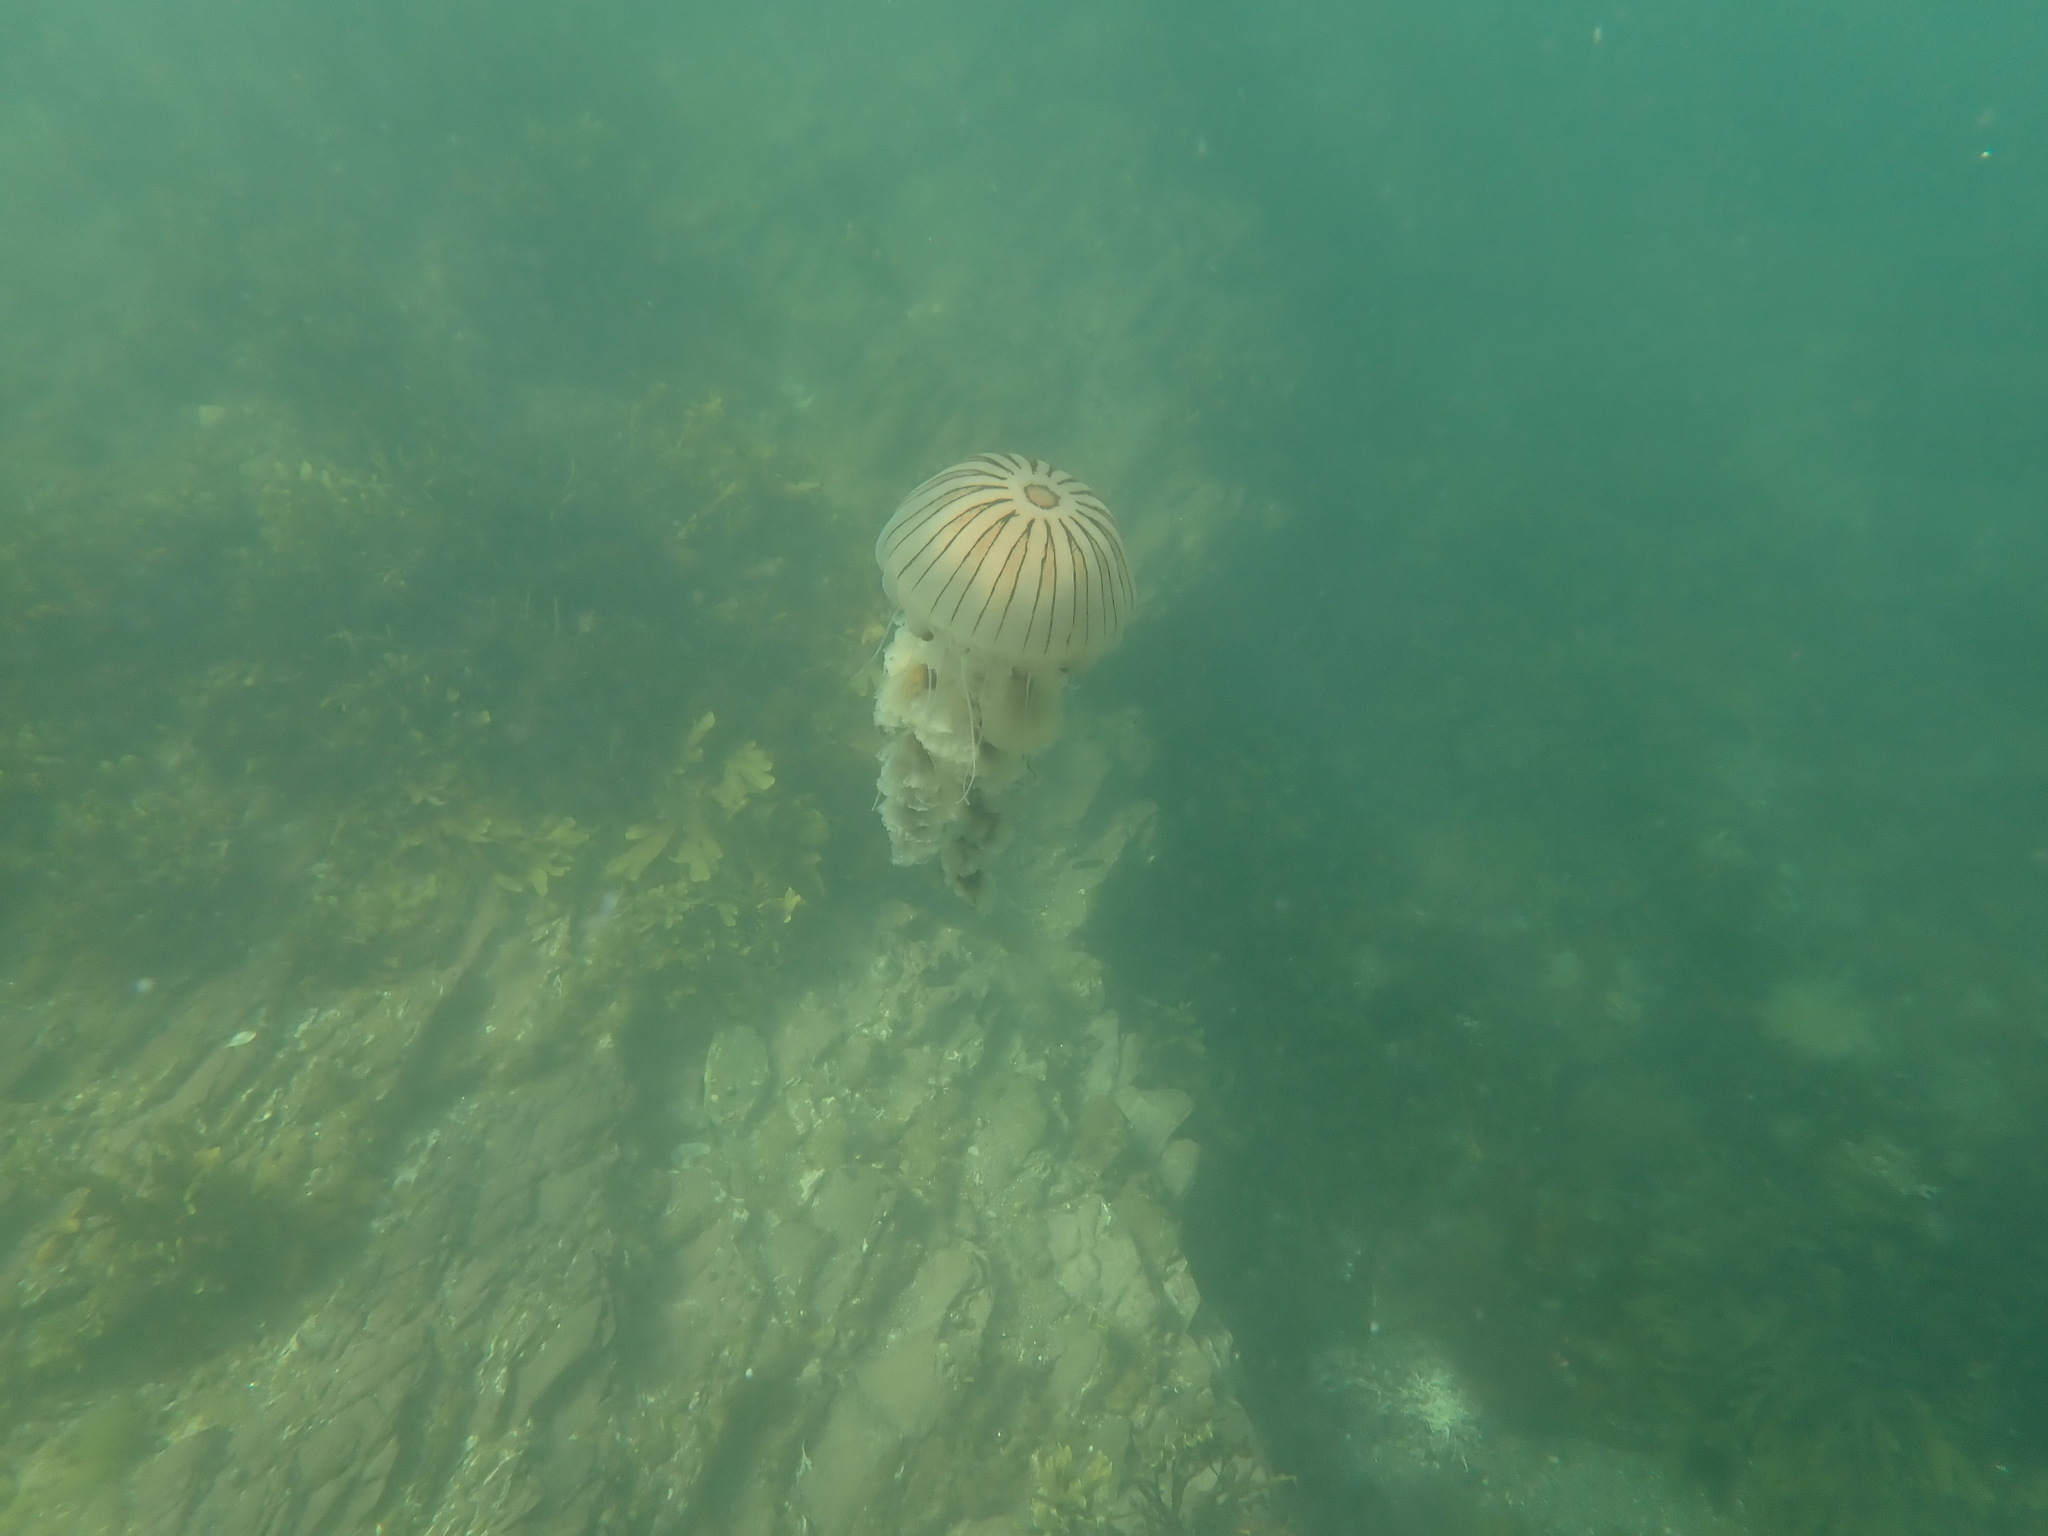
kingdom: Animalia
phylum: Cnidaria
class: Scyphozoa
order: Semaeostomeae
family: Pelagiidae
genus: Chrysaora
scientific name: Chrysaora hysoscella
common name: Compass jellyfish
